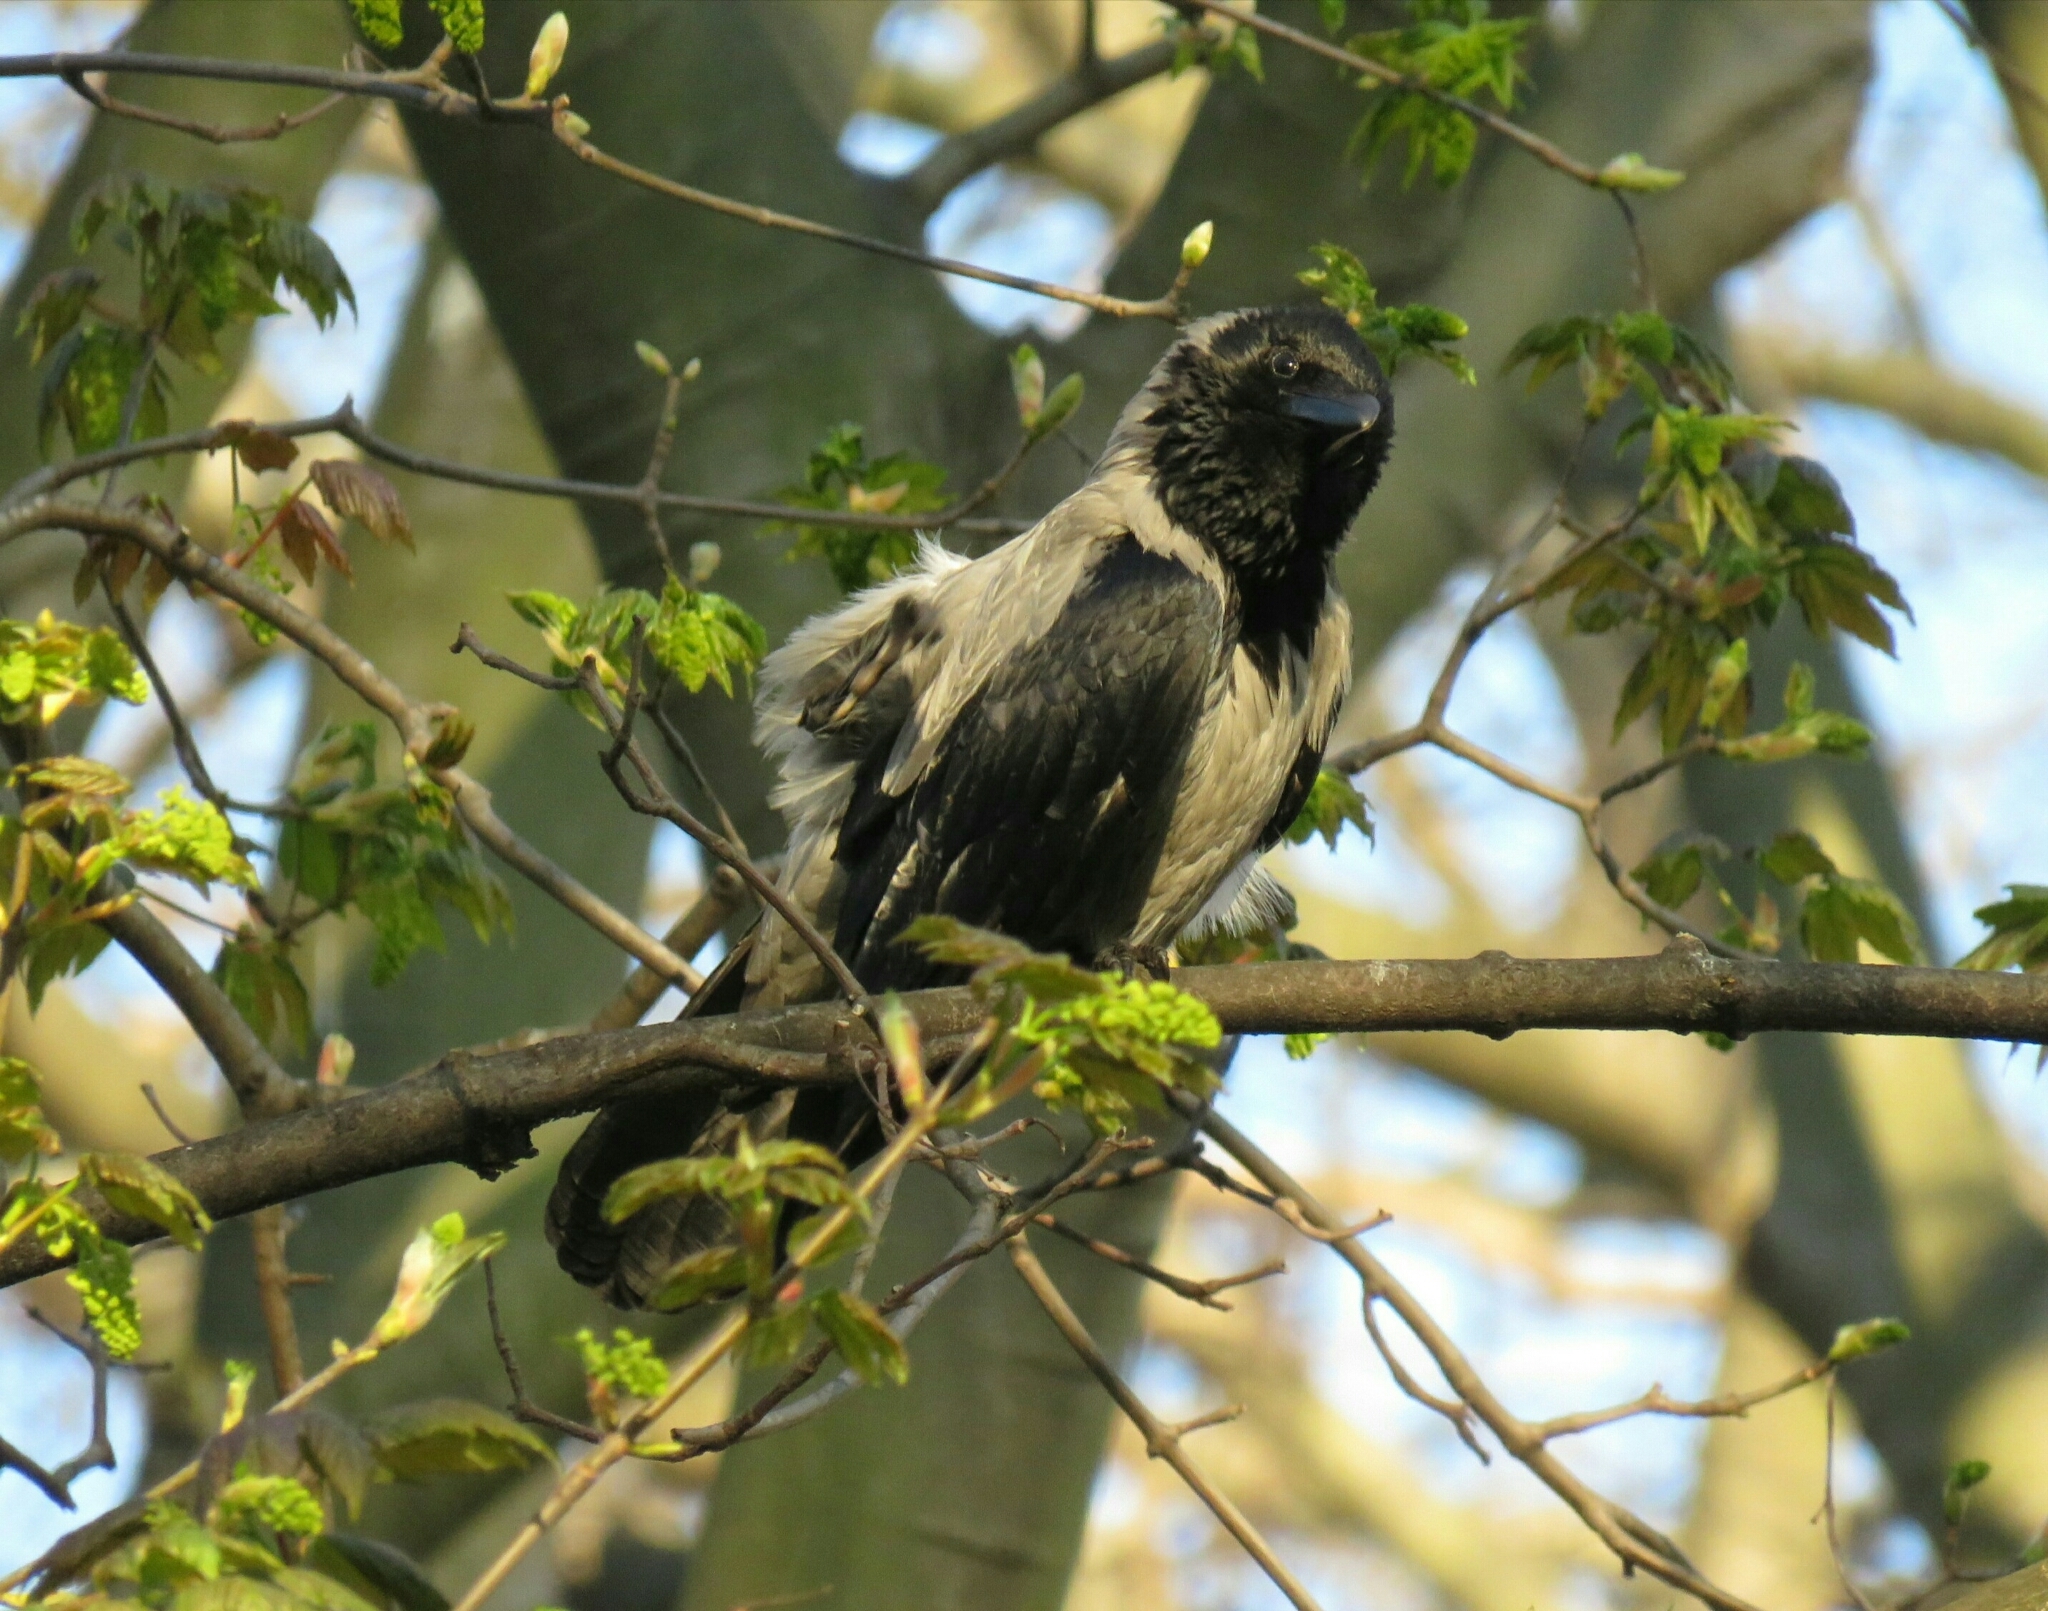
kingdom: Animalia
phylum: Chordata
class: Aves
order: Passeriformes
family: Corvidae
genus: Corvus
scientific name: Corvus cornix
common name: Hooded crow
